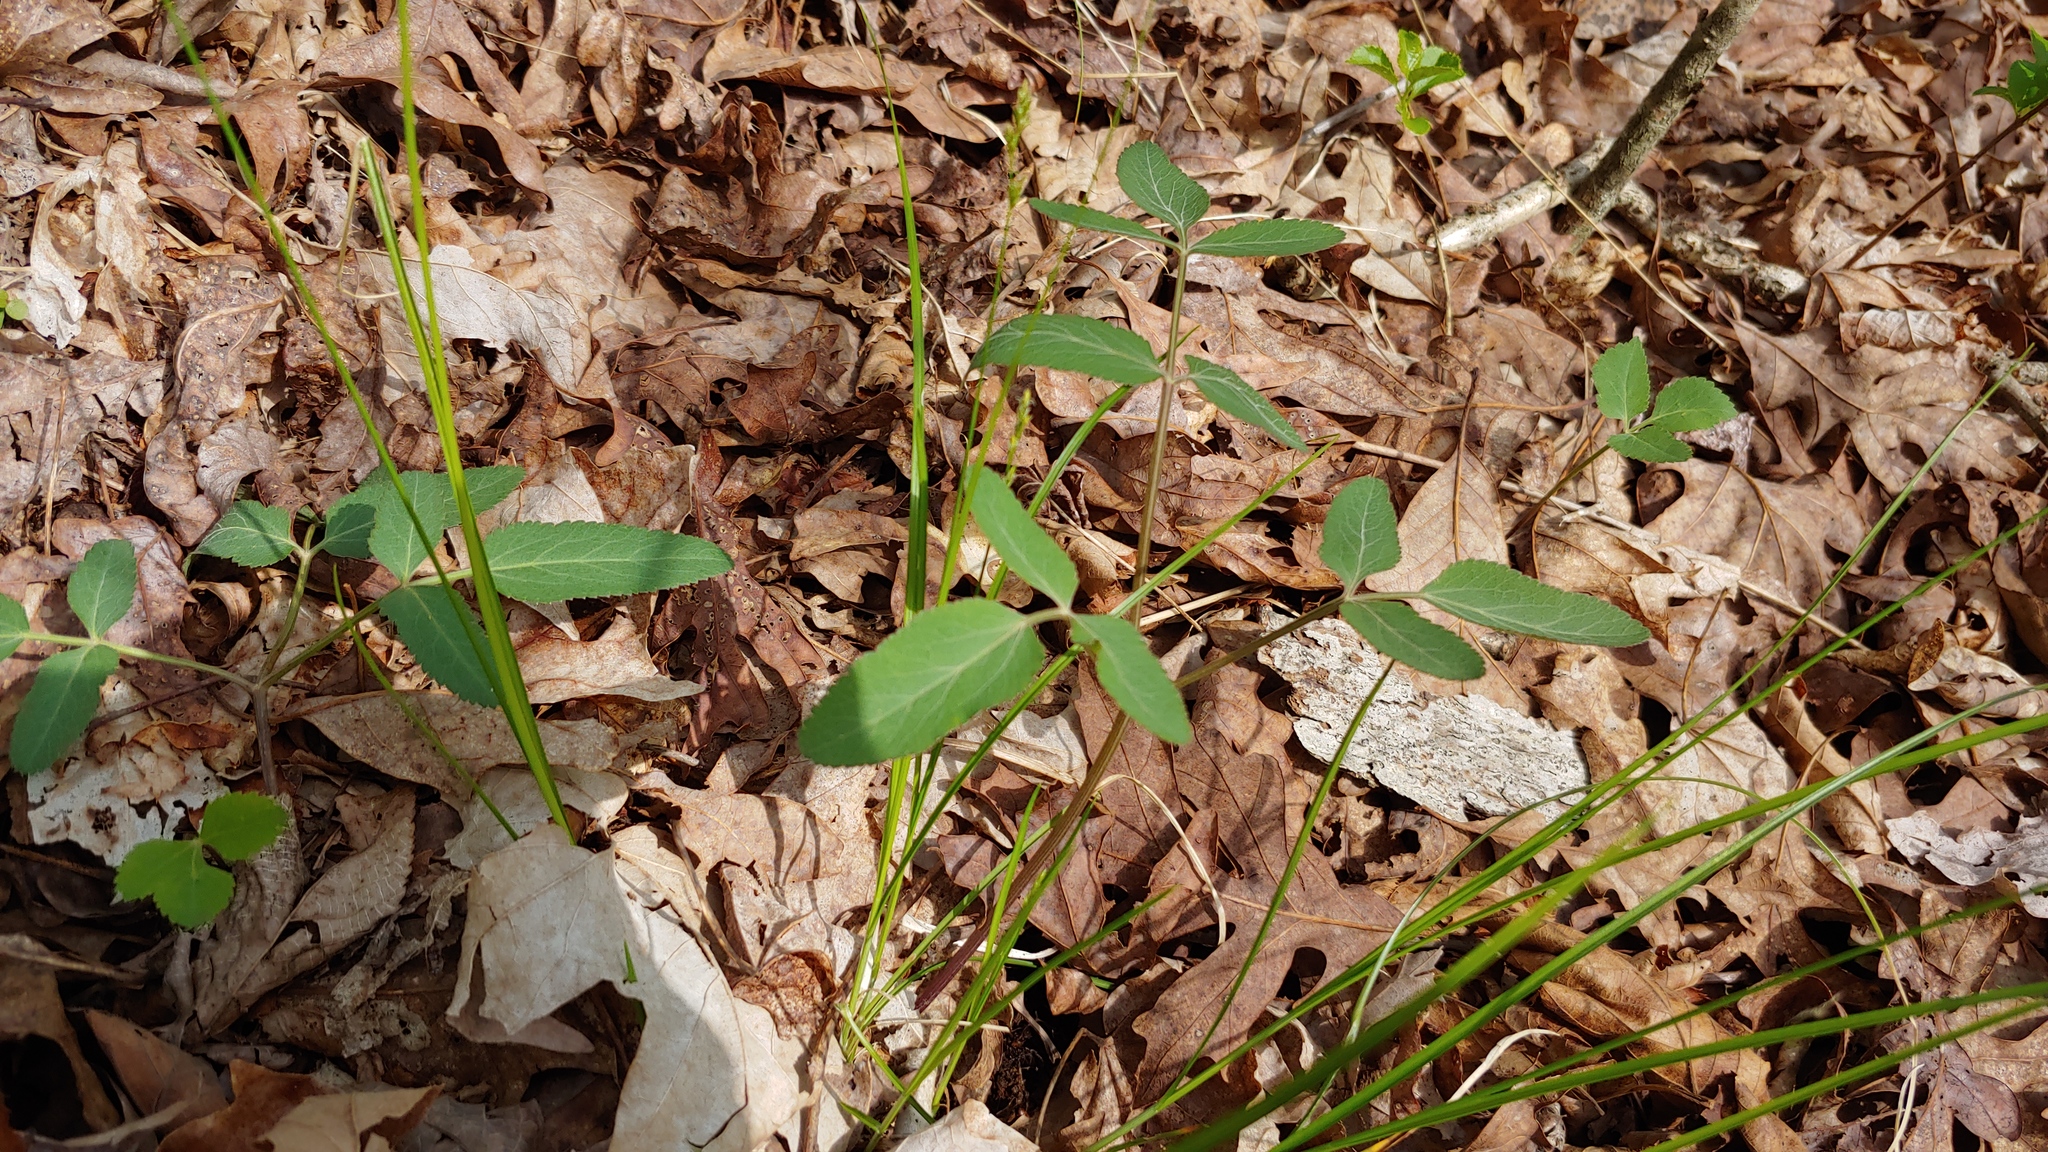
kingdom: Plantae
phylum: Tracheophyta
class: Magnoliopsida
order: Apiales
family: Apiaceae
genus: Angelica
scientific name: Angelica venenosa
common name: Hairy angelica
